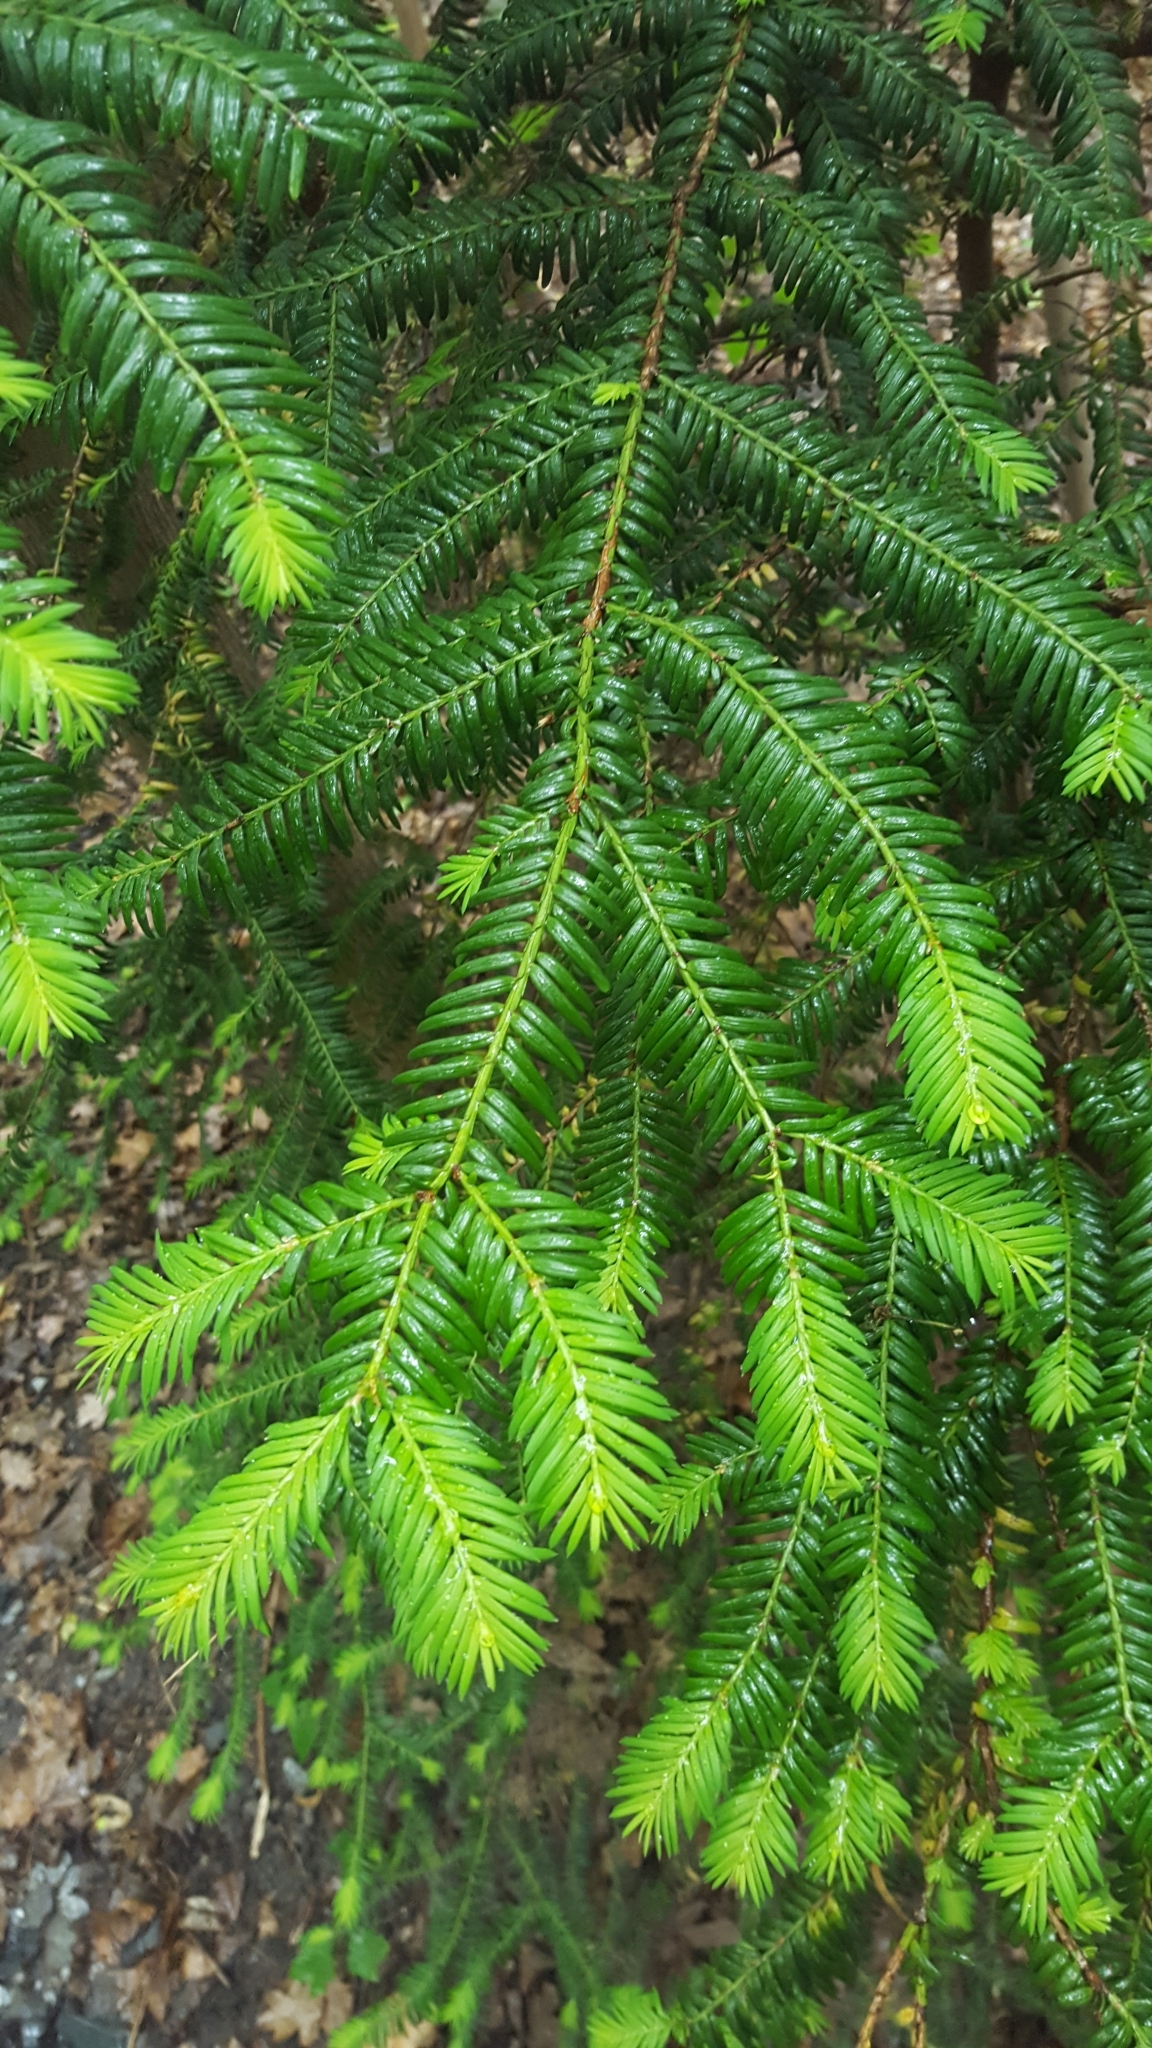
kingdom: Plantae
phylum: Tracheophyta
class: Pinopsida
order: Pinales
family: Taxaceae
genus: Taxus
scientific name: Taxus baccata
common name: Yew
